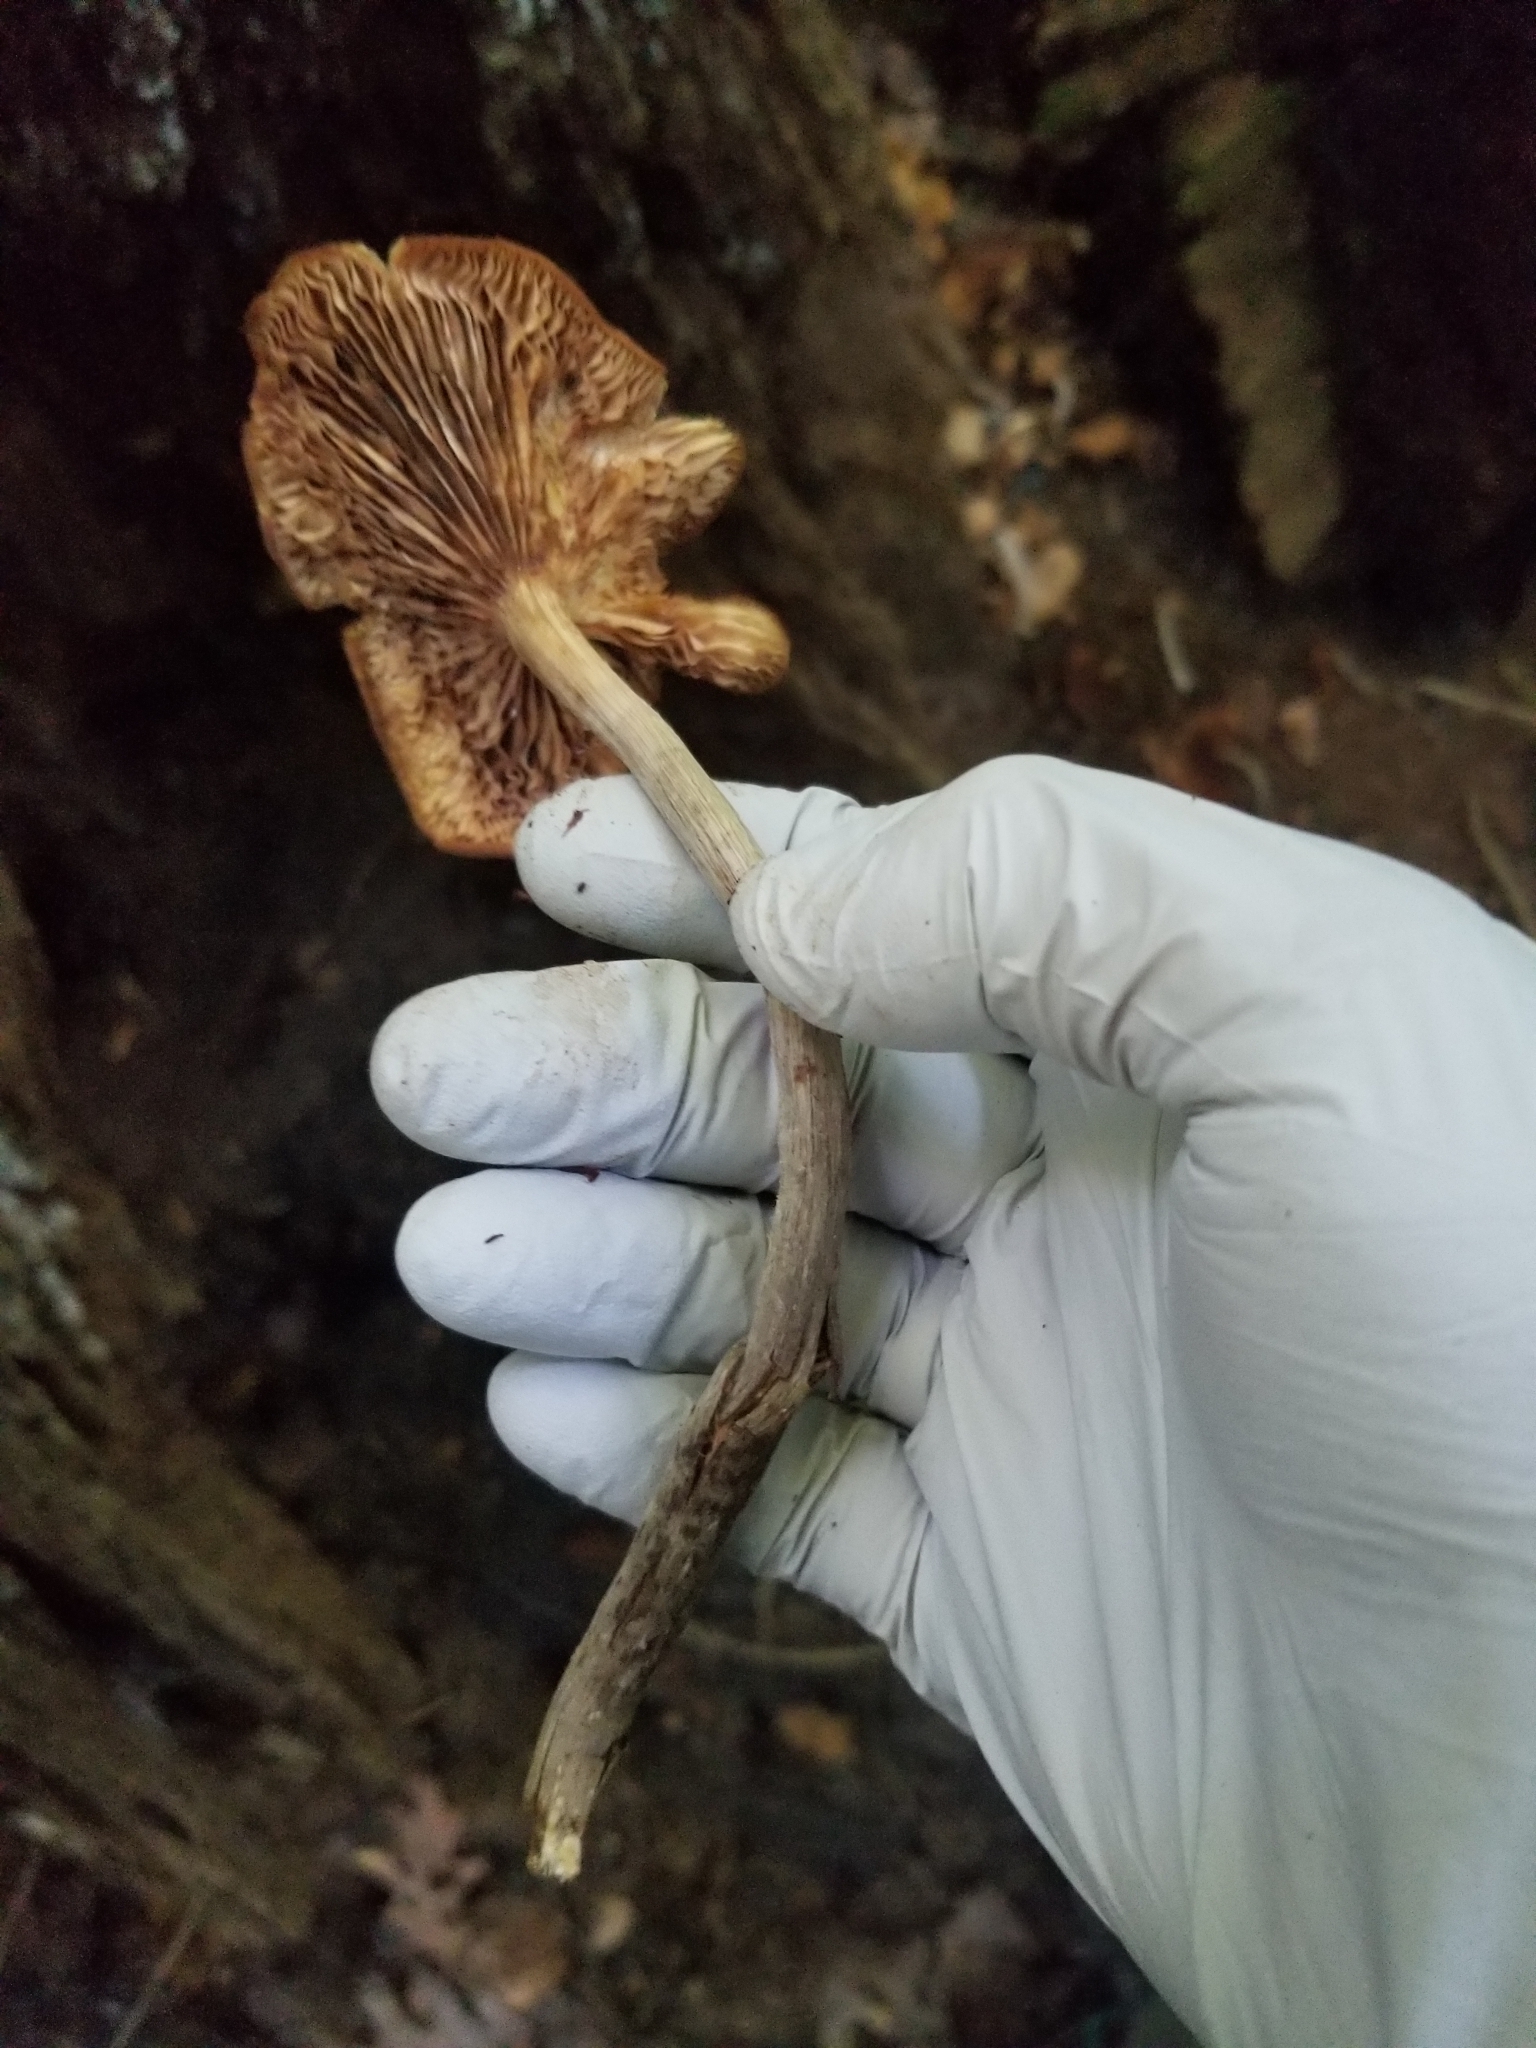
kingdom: Fungi
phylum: Basidiomycota
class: Agaricomycetes
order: Agaricales
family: Physalacriaceae
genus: Desarmillaria
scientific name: Desarmillaria caespitosa
